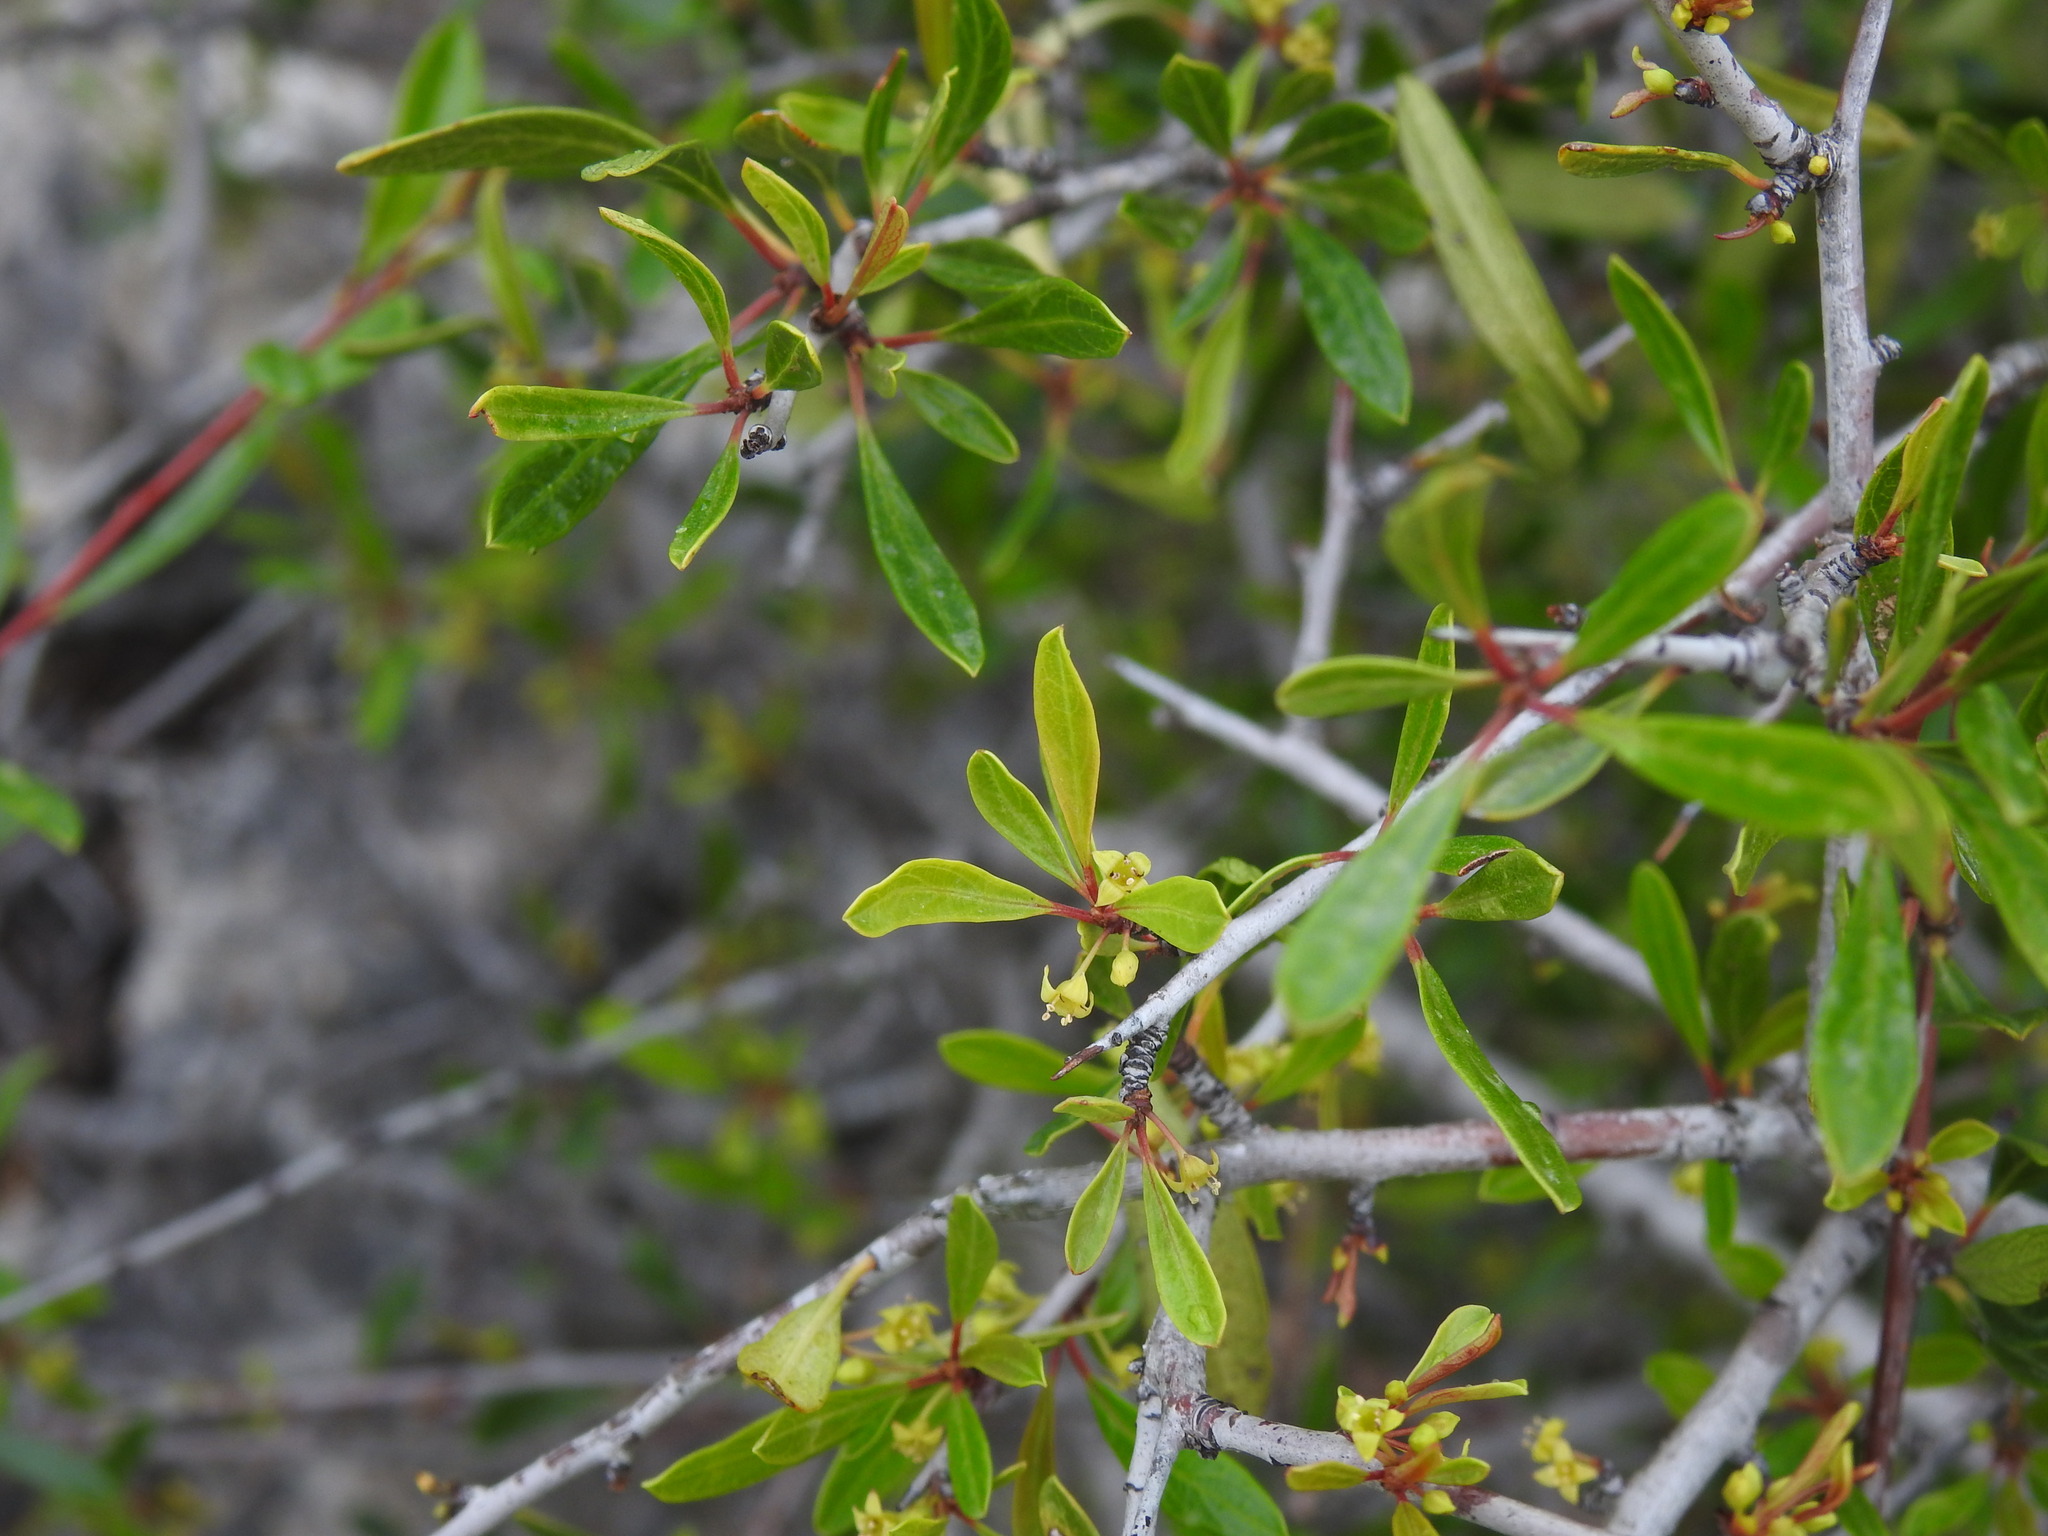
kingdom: Plantae
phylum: Tracheophyta
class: Magnoliopsida
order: Rosales
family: Rhamnaceae
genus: Rhamnus
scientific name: Rhamnus oleoides
